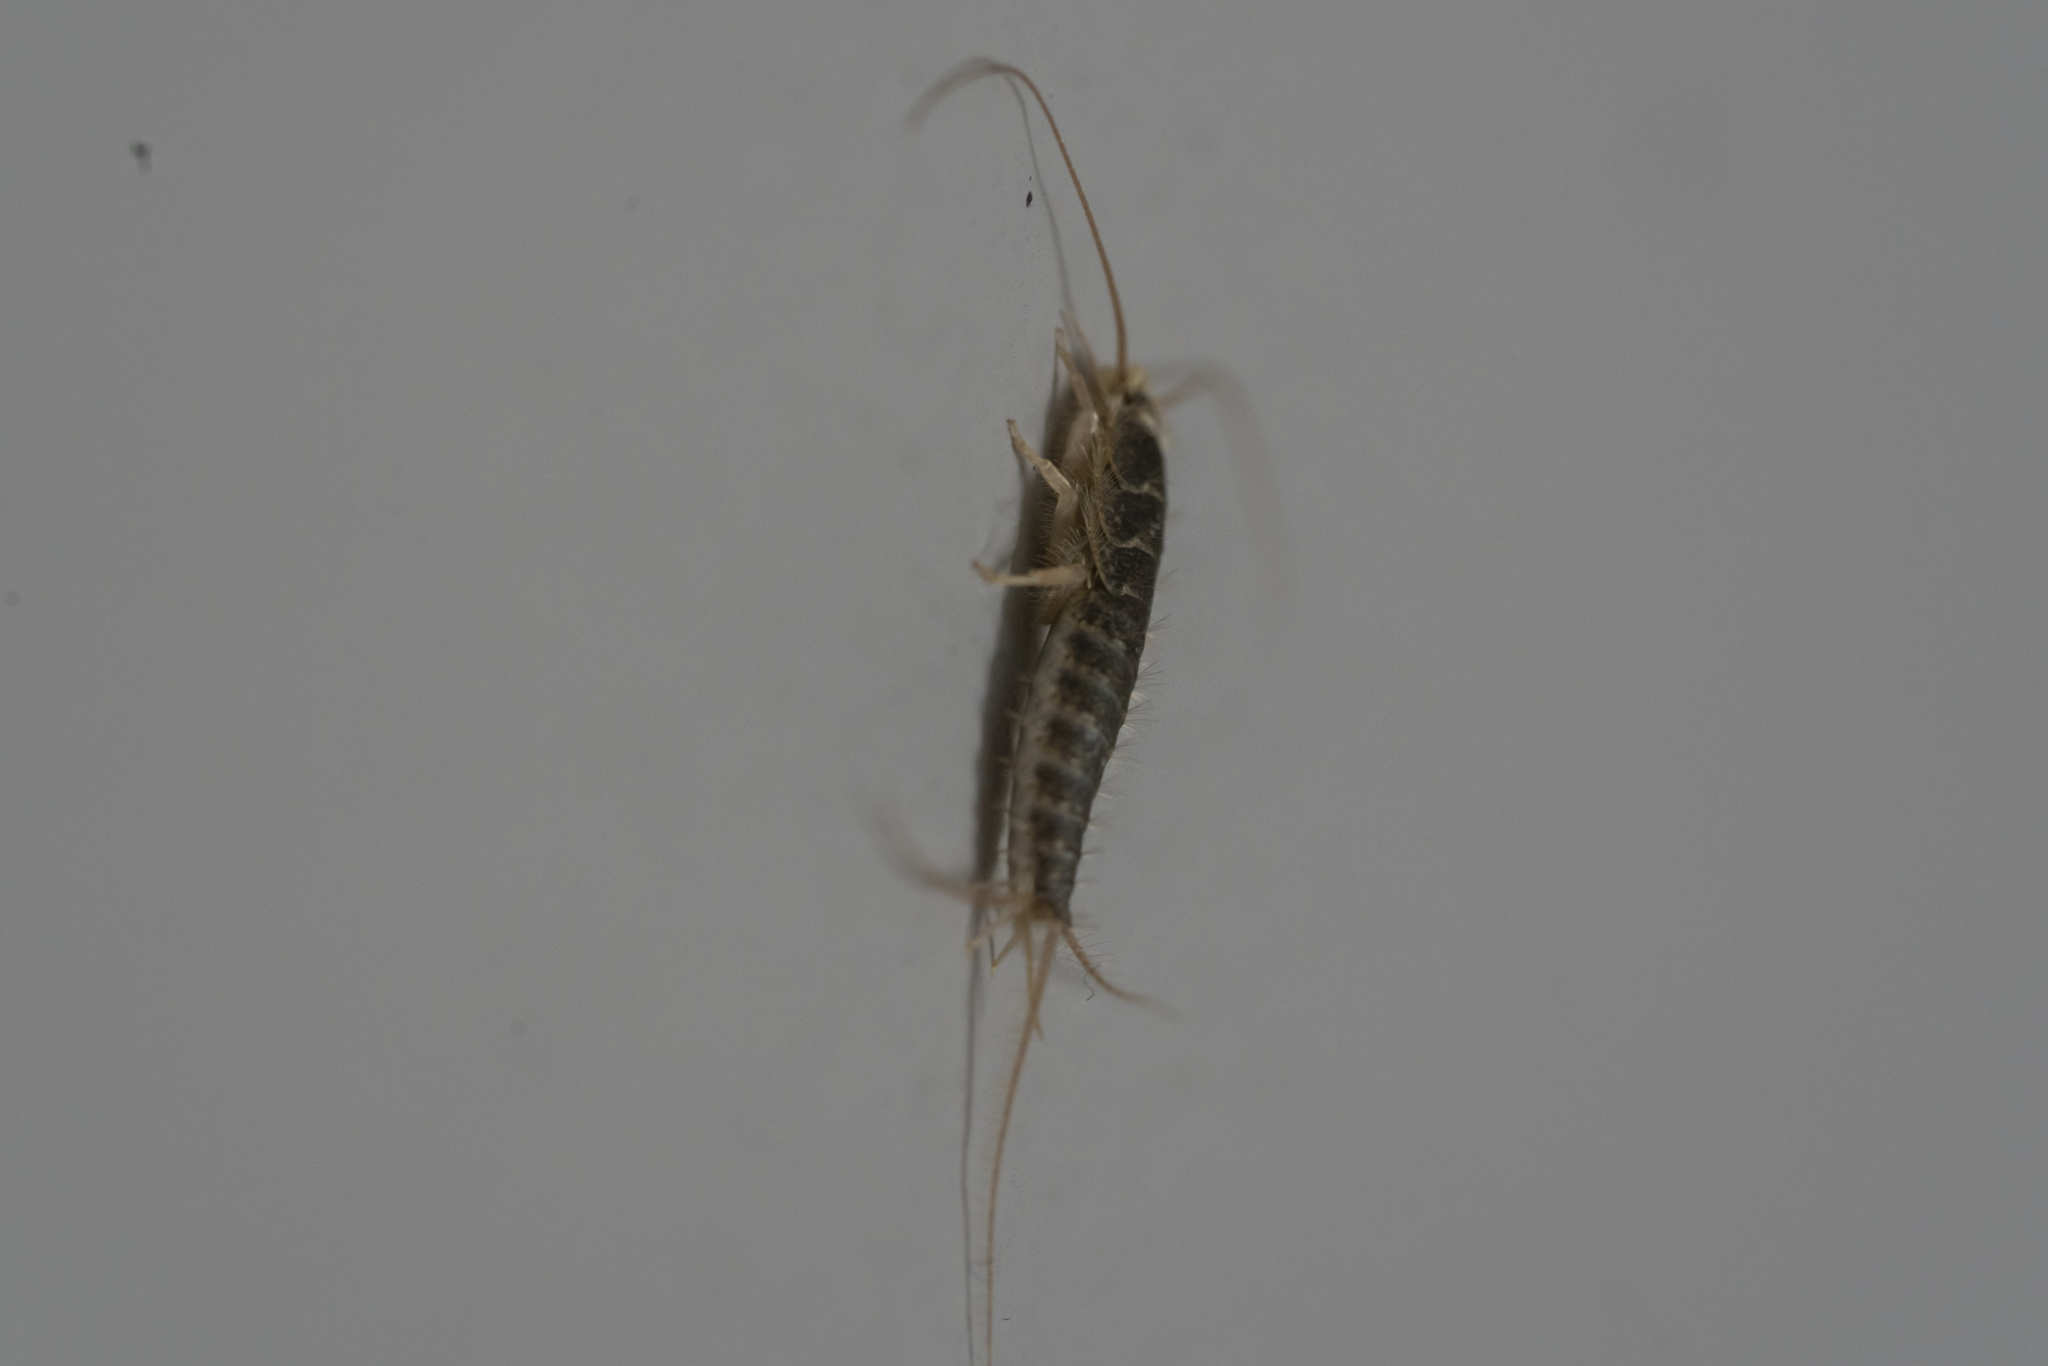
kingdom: Animalia
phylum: Arthropoda
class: Insecta
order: Zygentoma
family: Lepismatidae
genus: Ctenolepisma
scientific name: Ctenolepisma longicaudatum
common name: Silverfish
